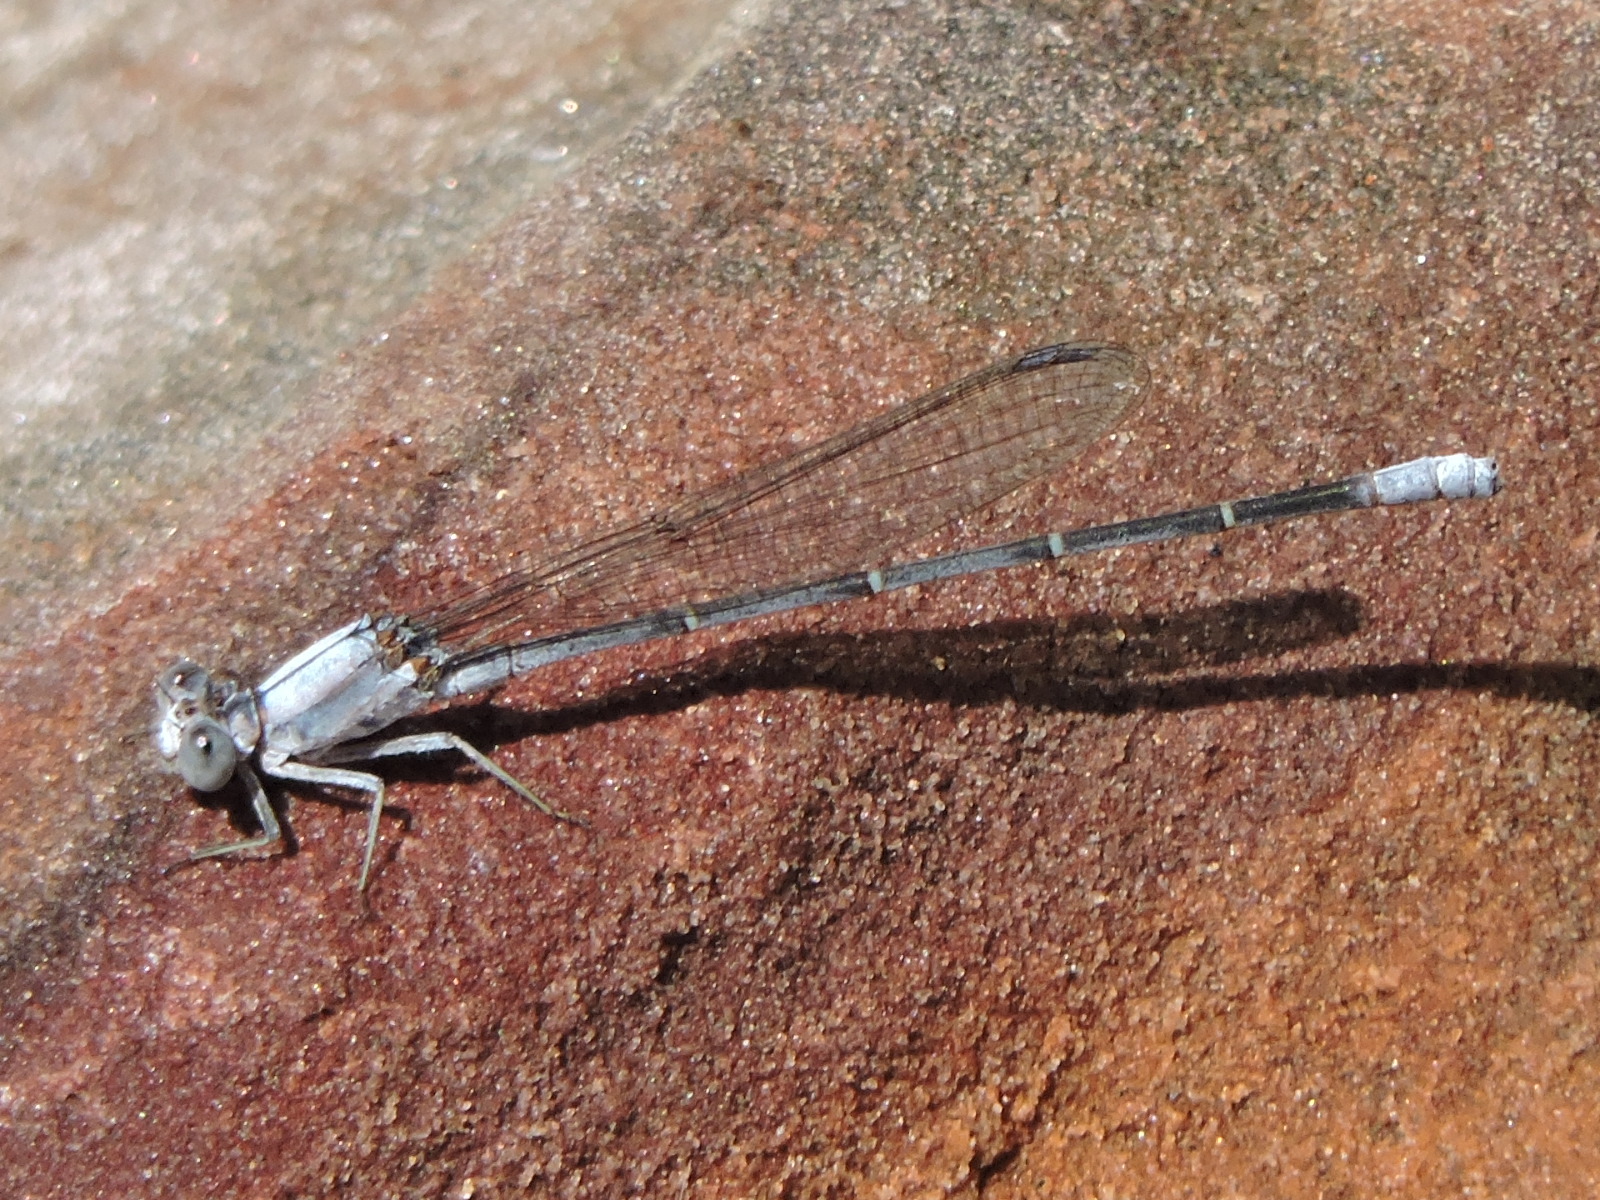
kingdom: Animalia
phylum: Arthropoda
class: Insecta
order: Odonata
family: Coenagrionidae
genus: Argia
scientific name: Argia moesta
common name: Powdered dancer
